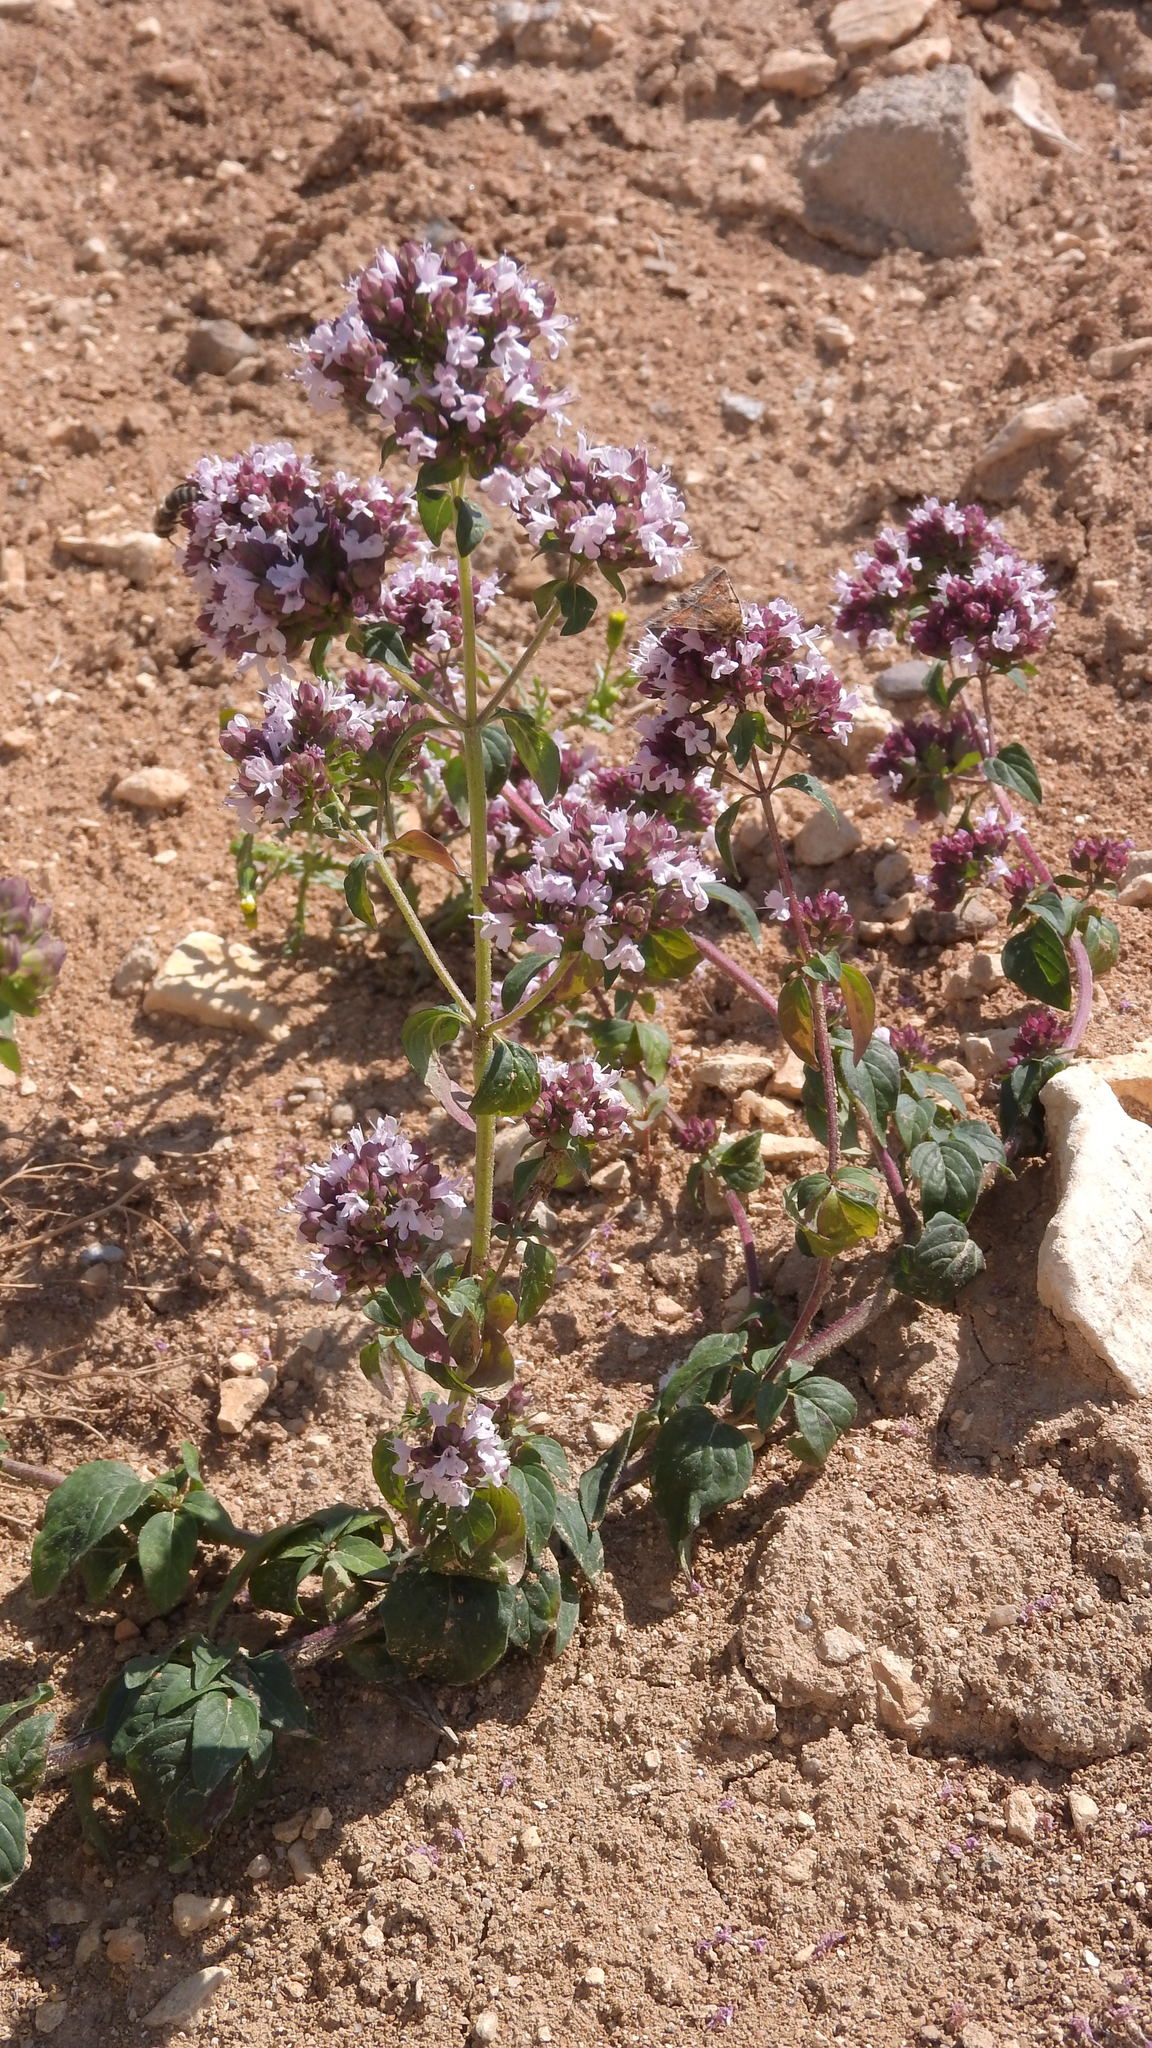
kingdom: Plantae
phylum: Tracheophyta
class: Magnoliopsida
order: Lamiales
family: Lamiaceae
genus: Origanum
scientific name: Origanum vulgare
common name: Wild marjoram
